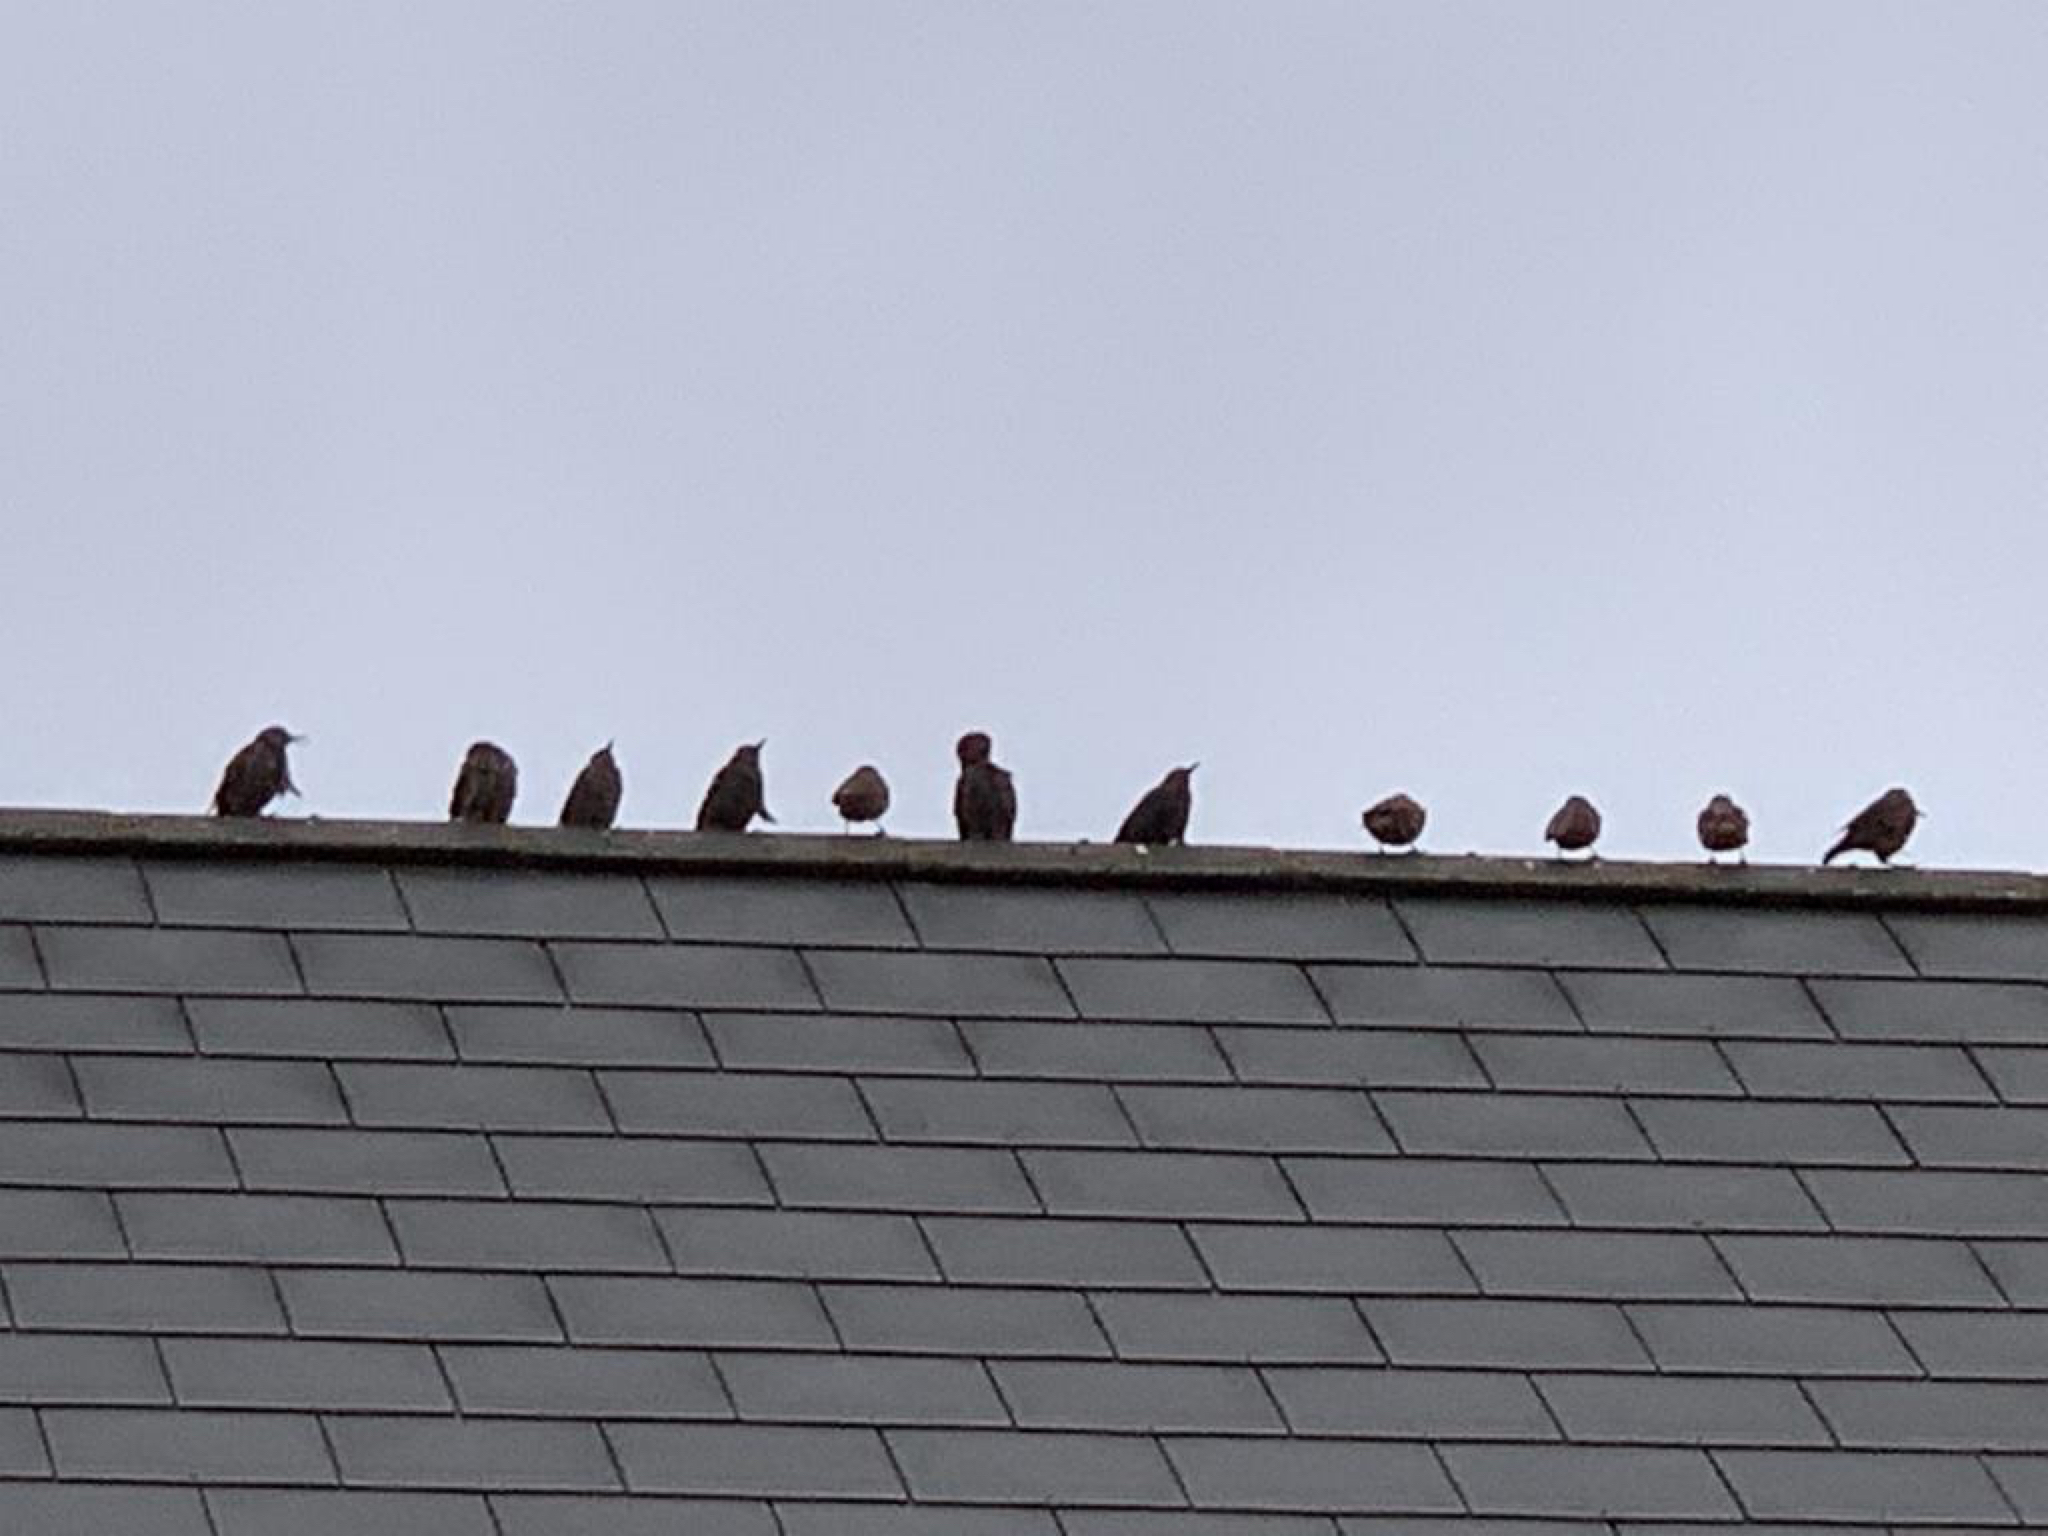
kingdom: Animalia
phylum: Chordata
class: Aves
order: Passeriformes
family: Sturnidae
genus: Sturnus
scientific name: Sturnus vulgaris
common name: Common starling
